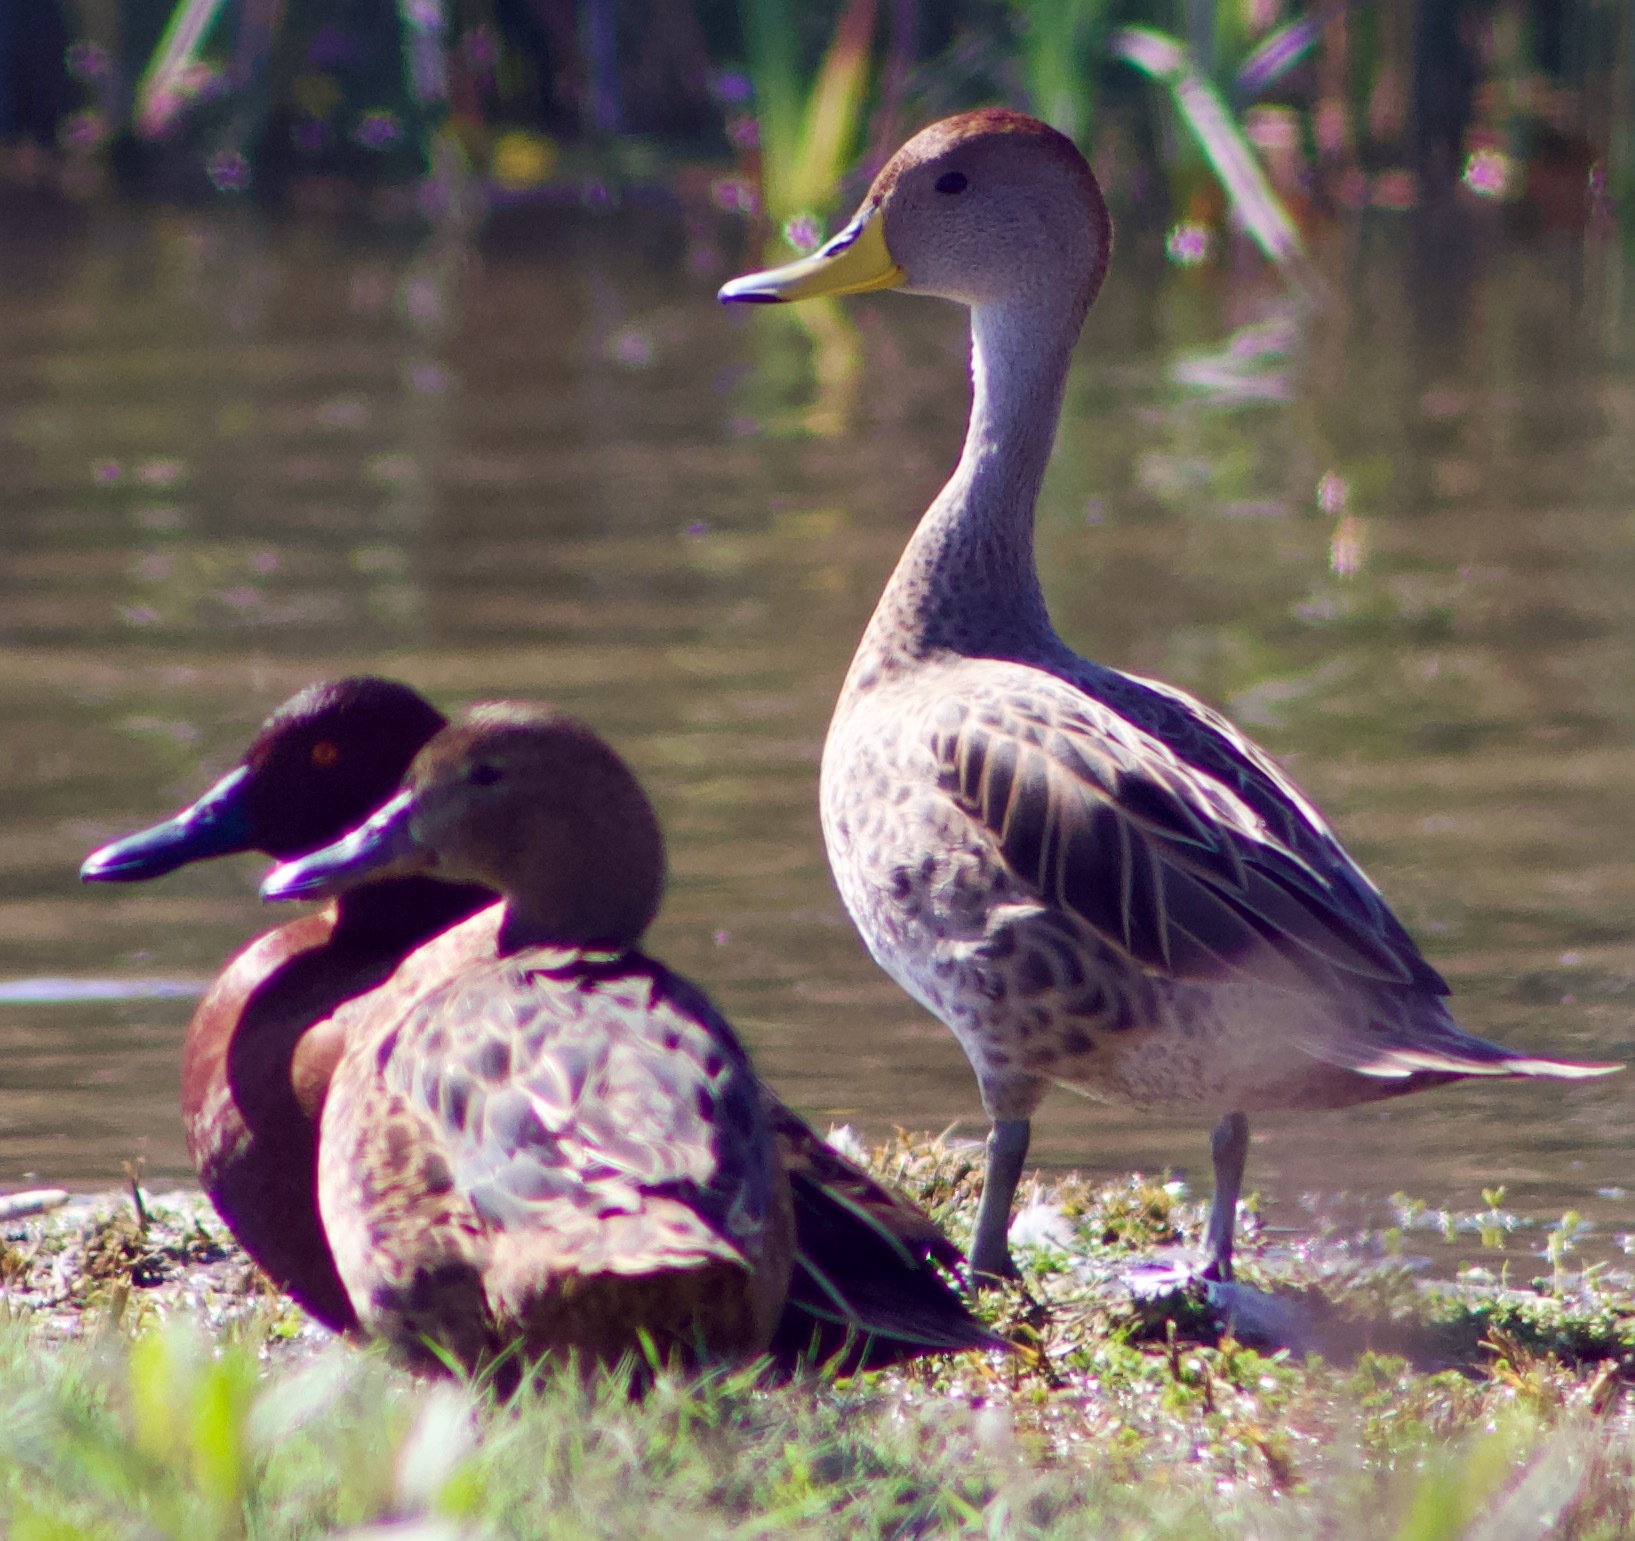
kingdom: Animalia
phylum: Chordata
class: Aves
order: Anseriformes
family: Anatidae
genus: Anas
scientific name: Anas georgica
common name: Yellow-billed pintail
